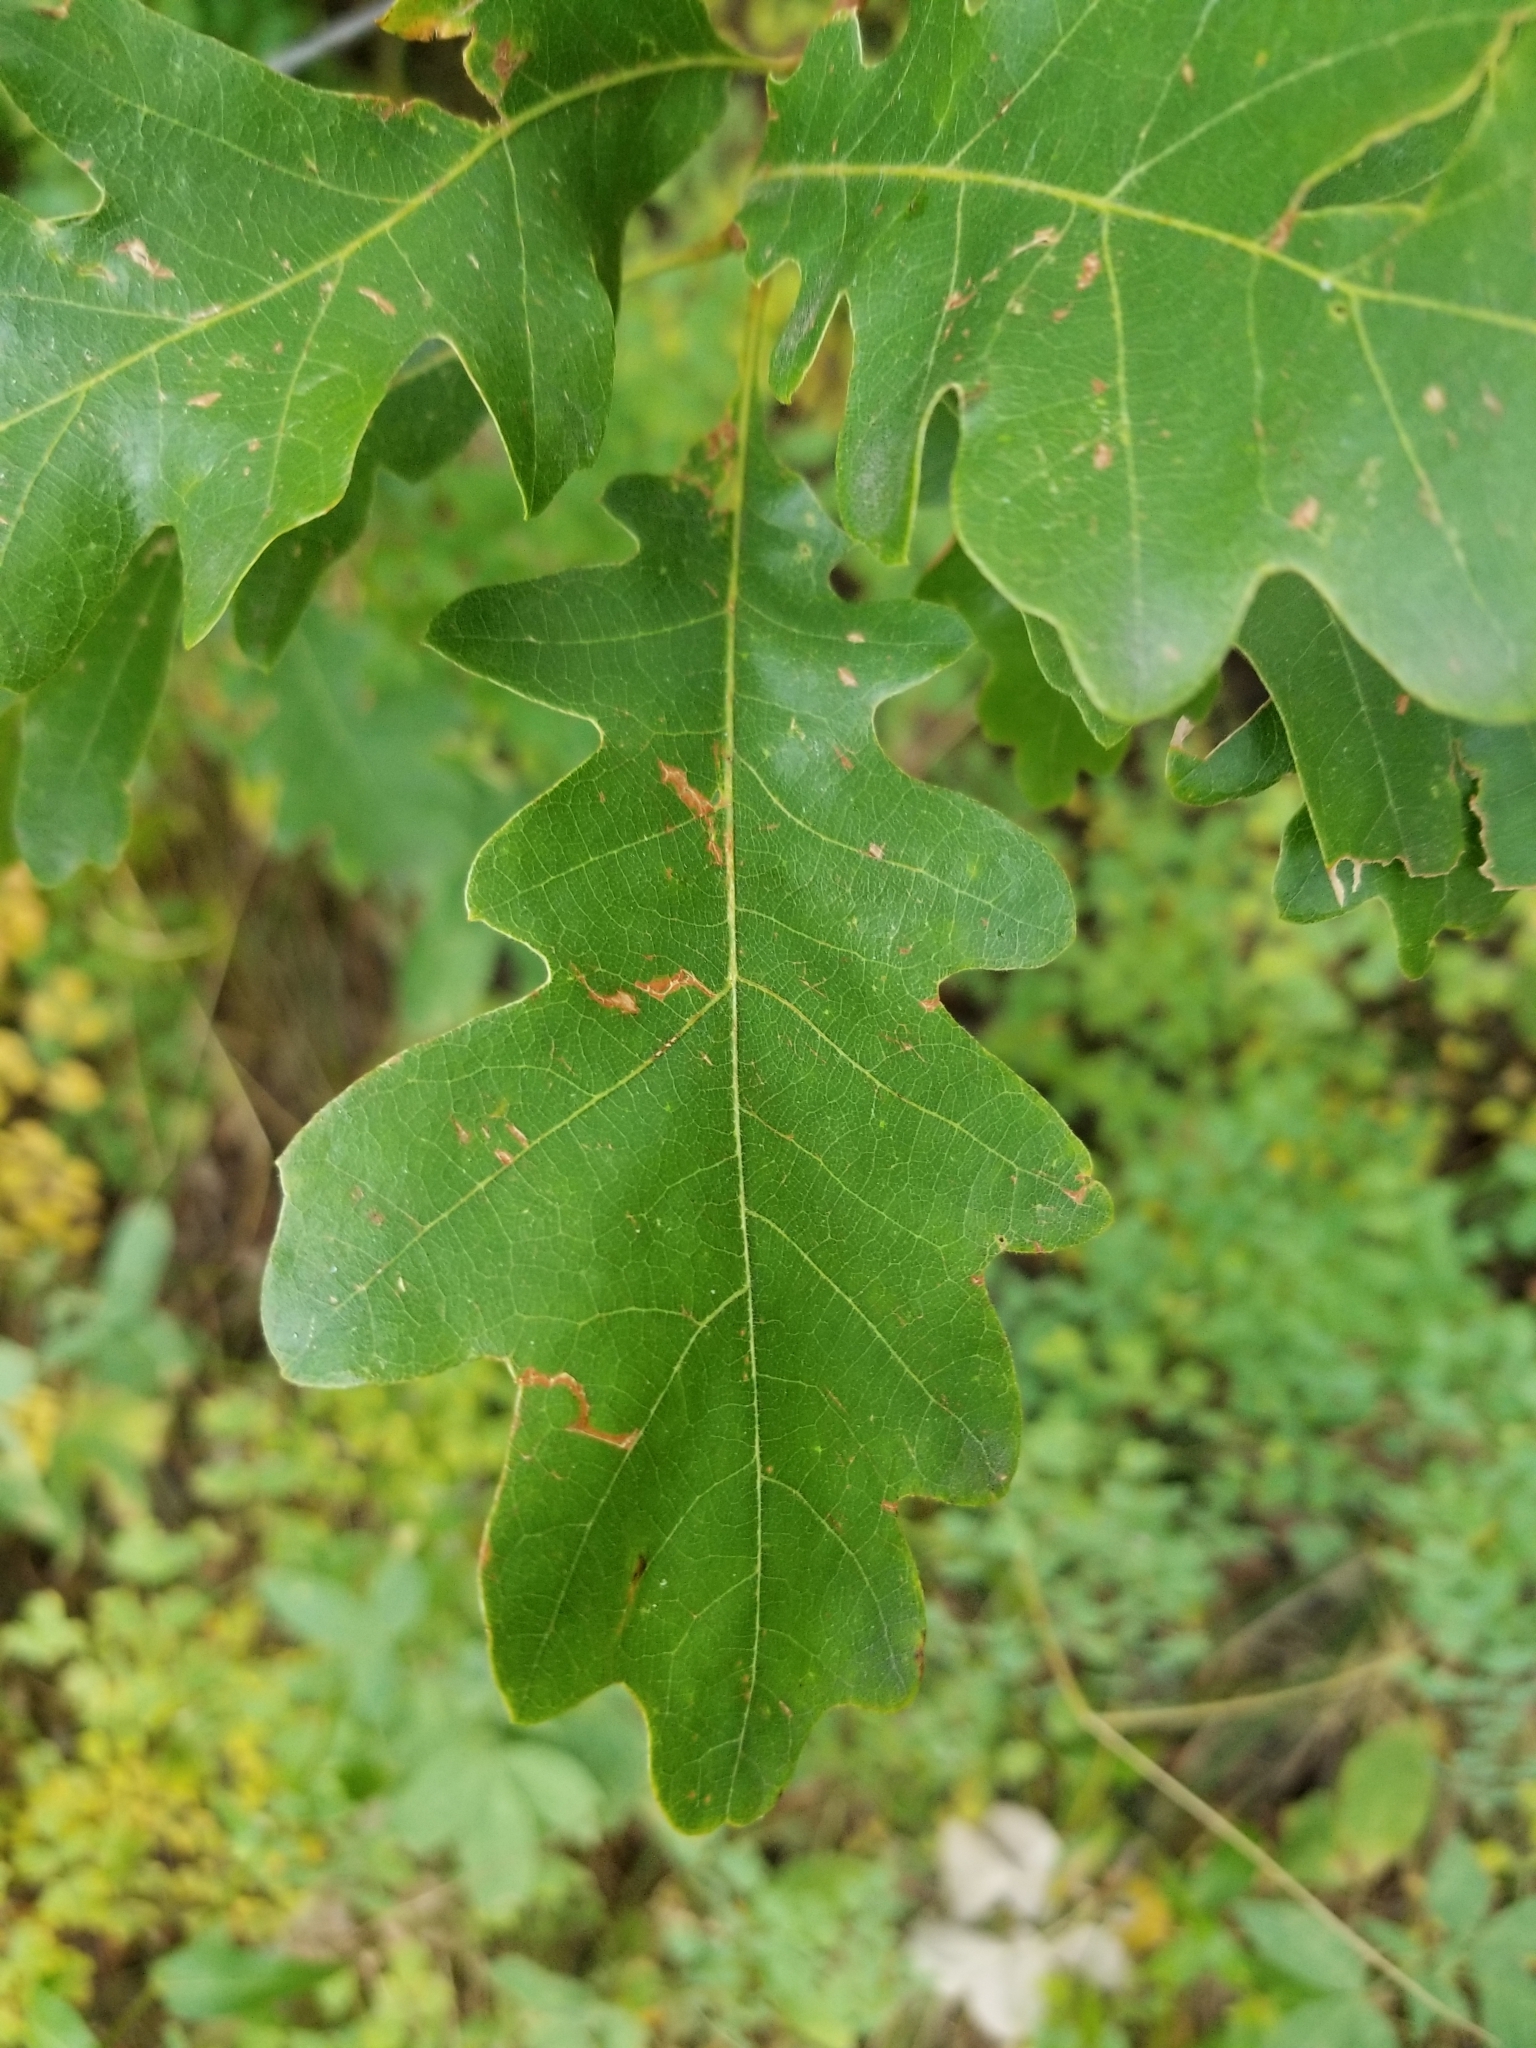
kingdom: Plantae
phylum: Tracheophyta
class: Magnoliopsida
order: Fagales
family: Fagaceae
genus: Quercus
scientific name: Quercus gambelii
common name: Gambel oak
